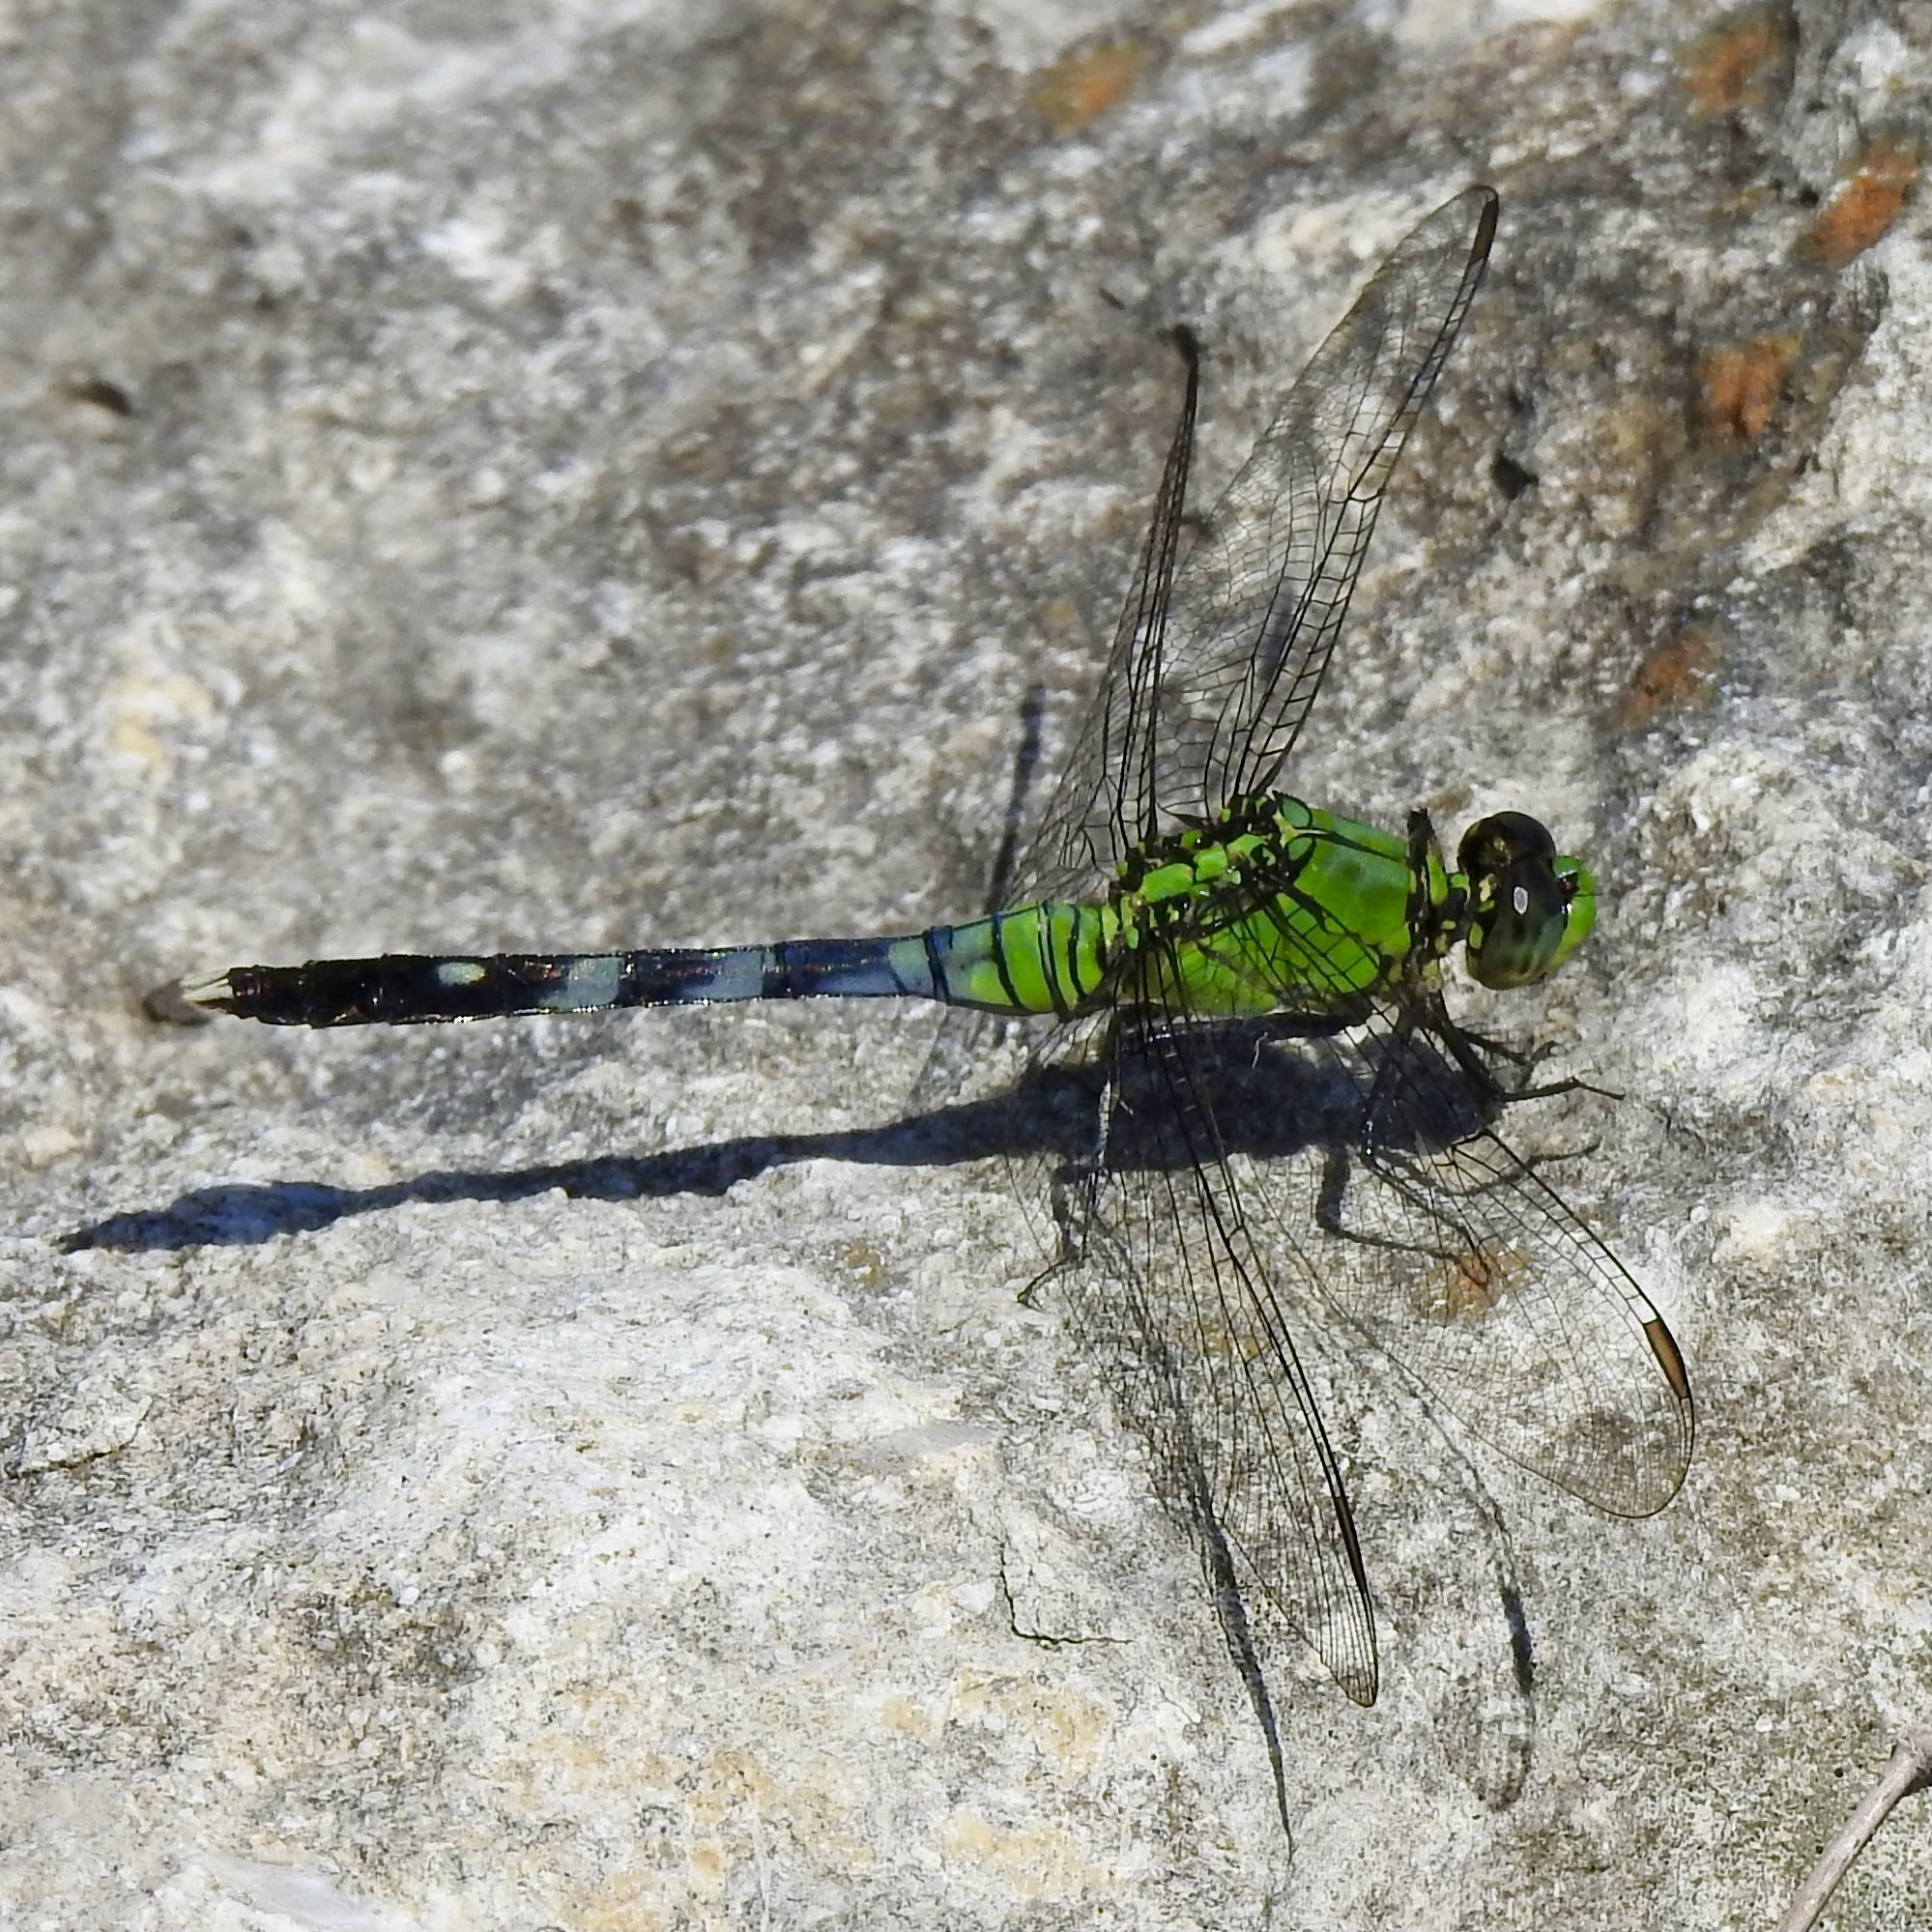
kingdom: Animalia
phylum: Arthropoda
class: Insecta
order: Odonata
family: Libellulidae
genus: Erythemis
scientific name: Erythemis simplicicollis
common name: Eastern pondhawk
